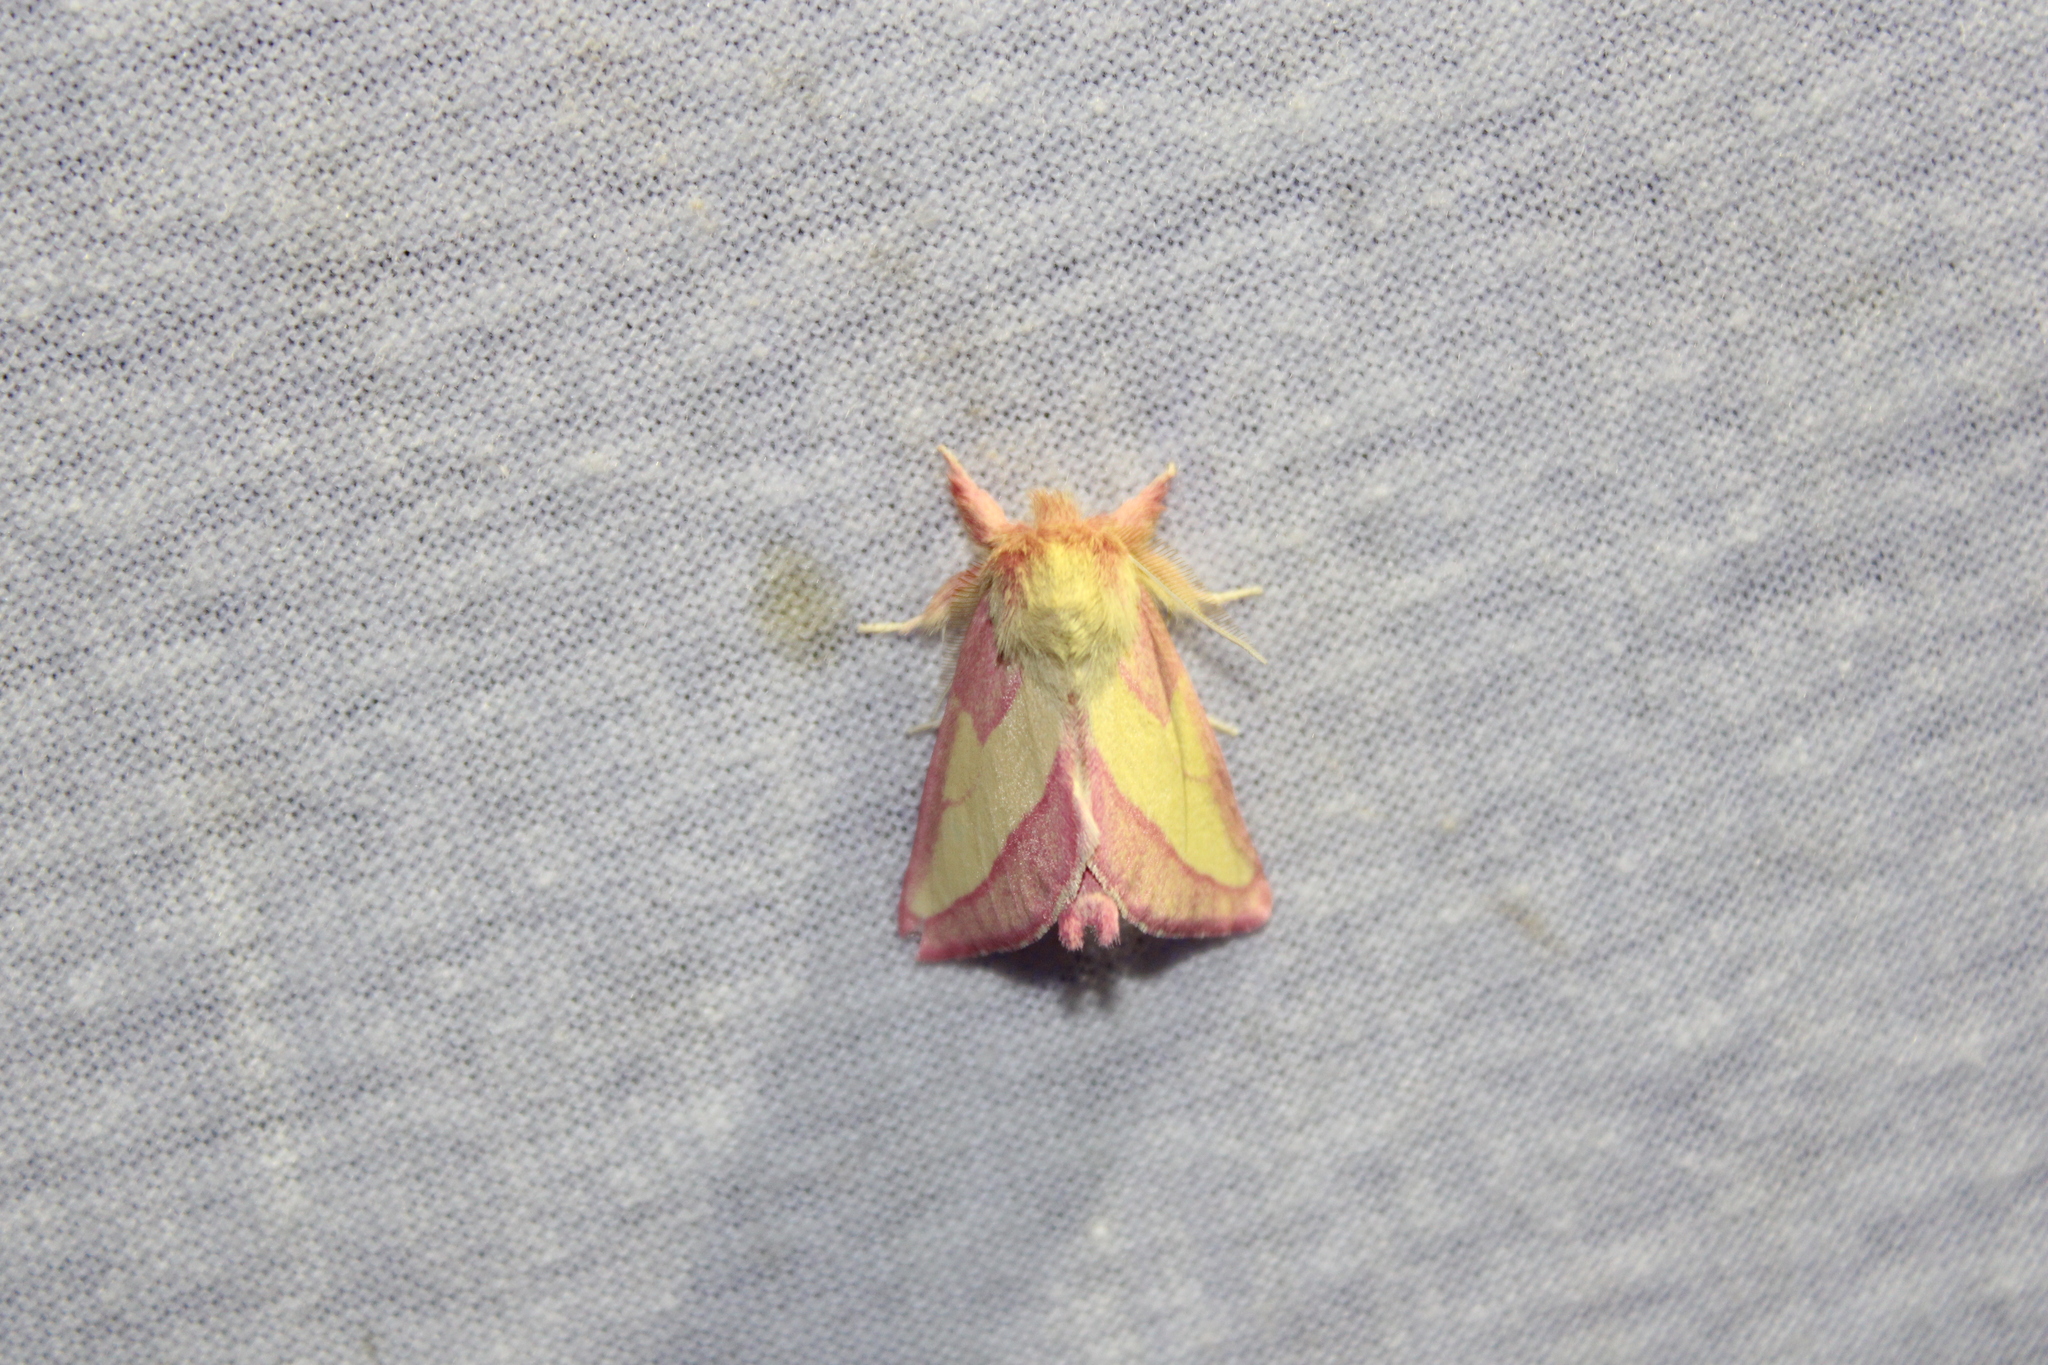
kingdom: Animalia
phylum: Arthropoda
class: Insecta
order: Lepidoptera
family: Notodontidae
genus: Hyparpax
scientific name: Hyparpax aurora
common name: Pink prominent
